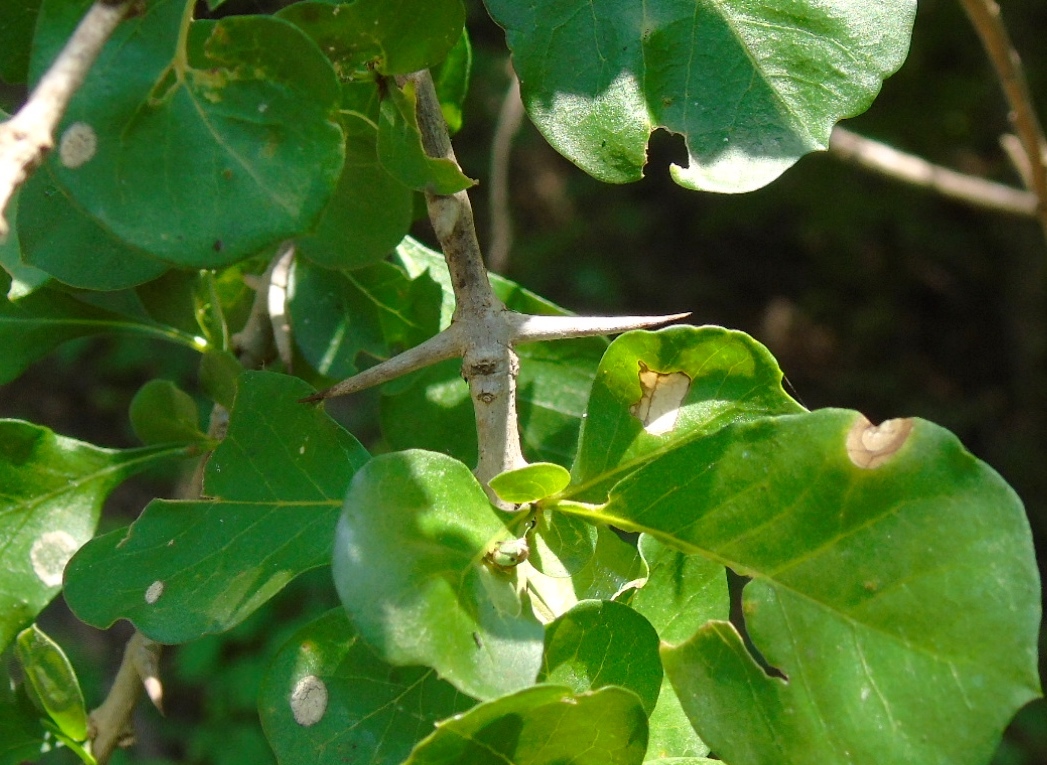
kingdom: Plantae
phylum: Tracheophyta
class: Magnoliopsida
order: Gentianales
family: Rubiaceae
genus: Randia
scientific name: Randia thurberi
